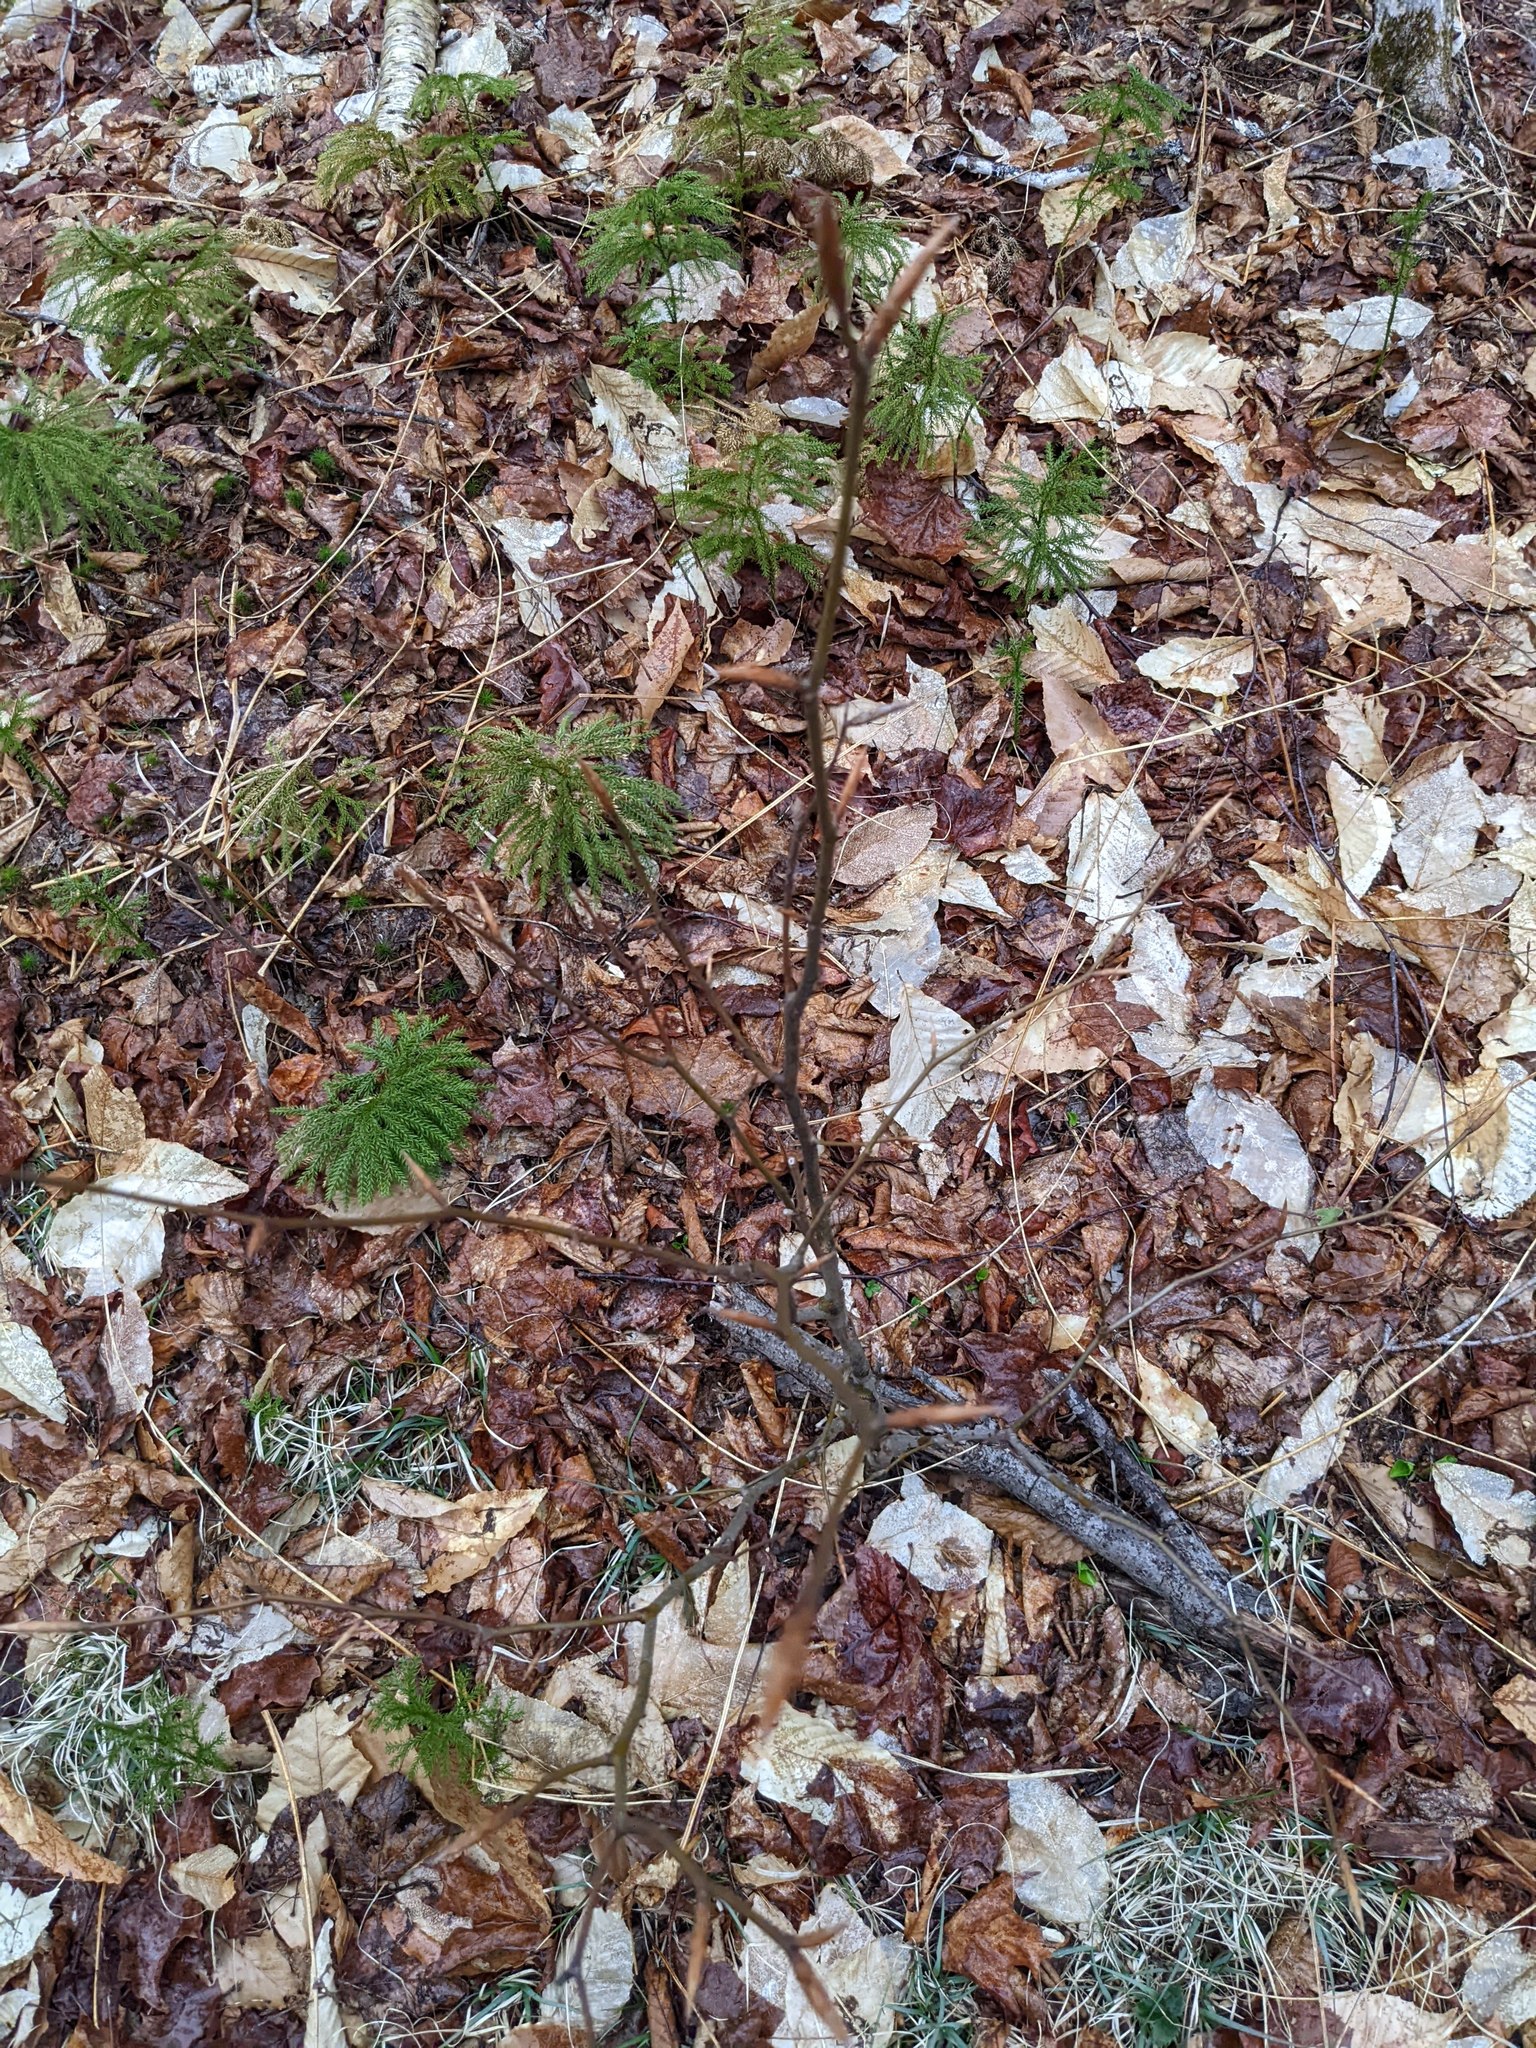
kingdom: Plantae
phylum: Tracheophyta
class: Magnoliopsida
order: Fagales
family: Fagaceae
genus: Fagus
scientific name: Fagus grandifolia
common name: American beech
